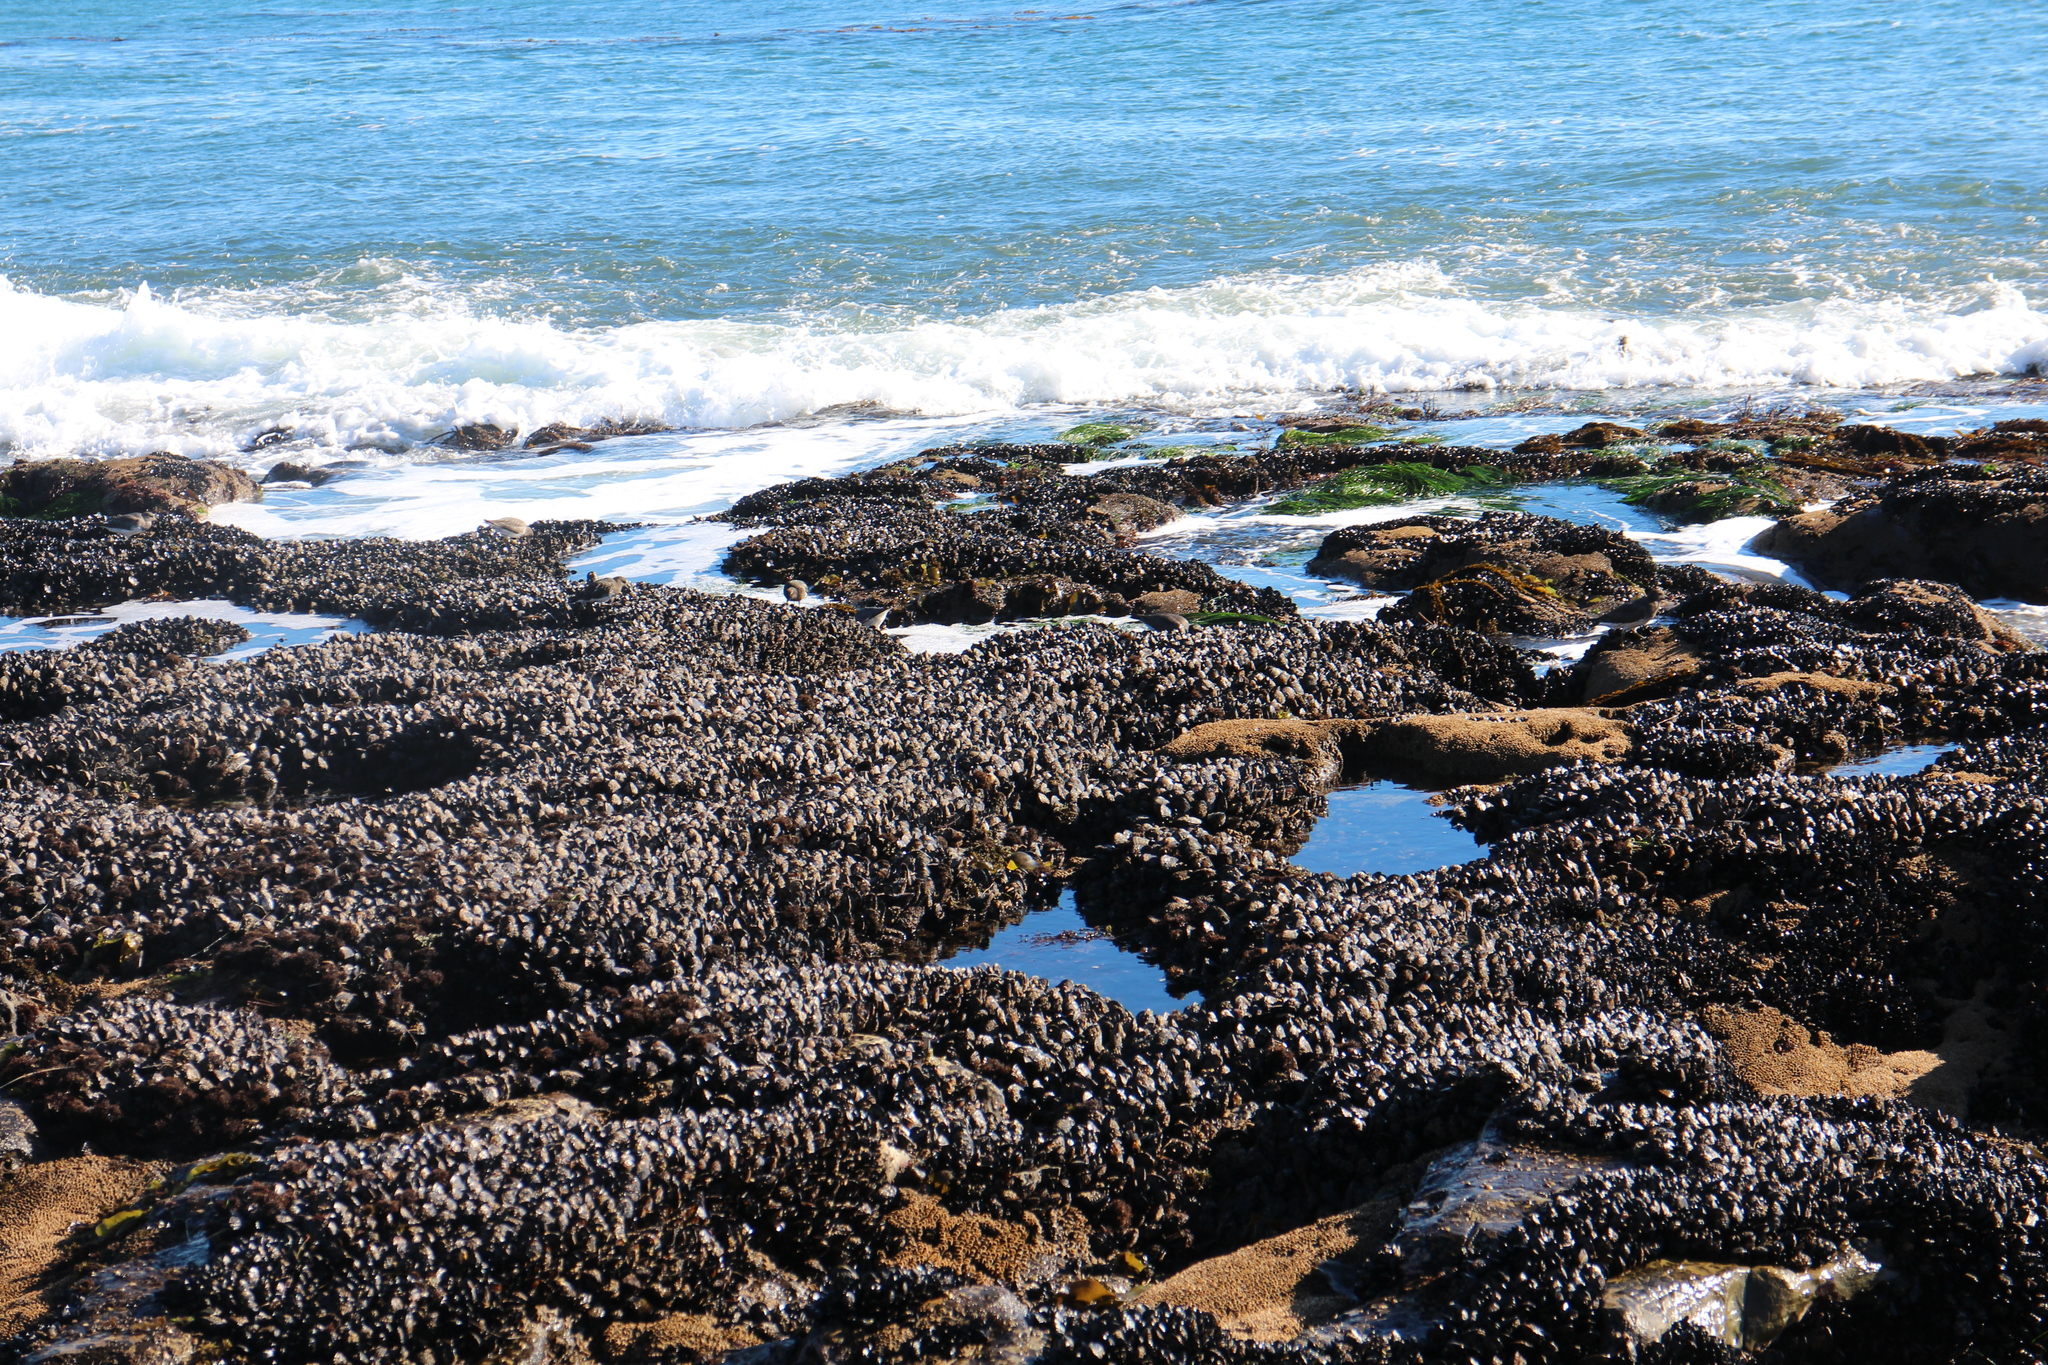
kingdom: Animalia
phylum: Mollusca
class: Bivalvia
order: Mytilida
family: Mytilidae
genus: Mytilus
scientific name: Mytilus californianus
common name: California mussel
